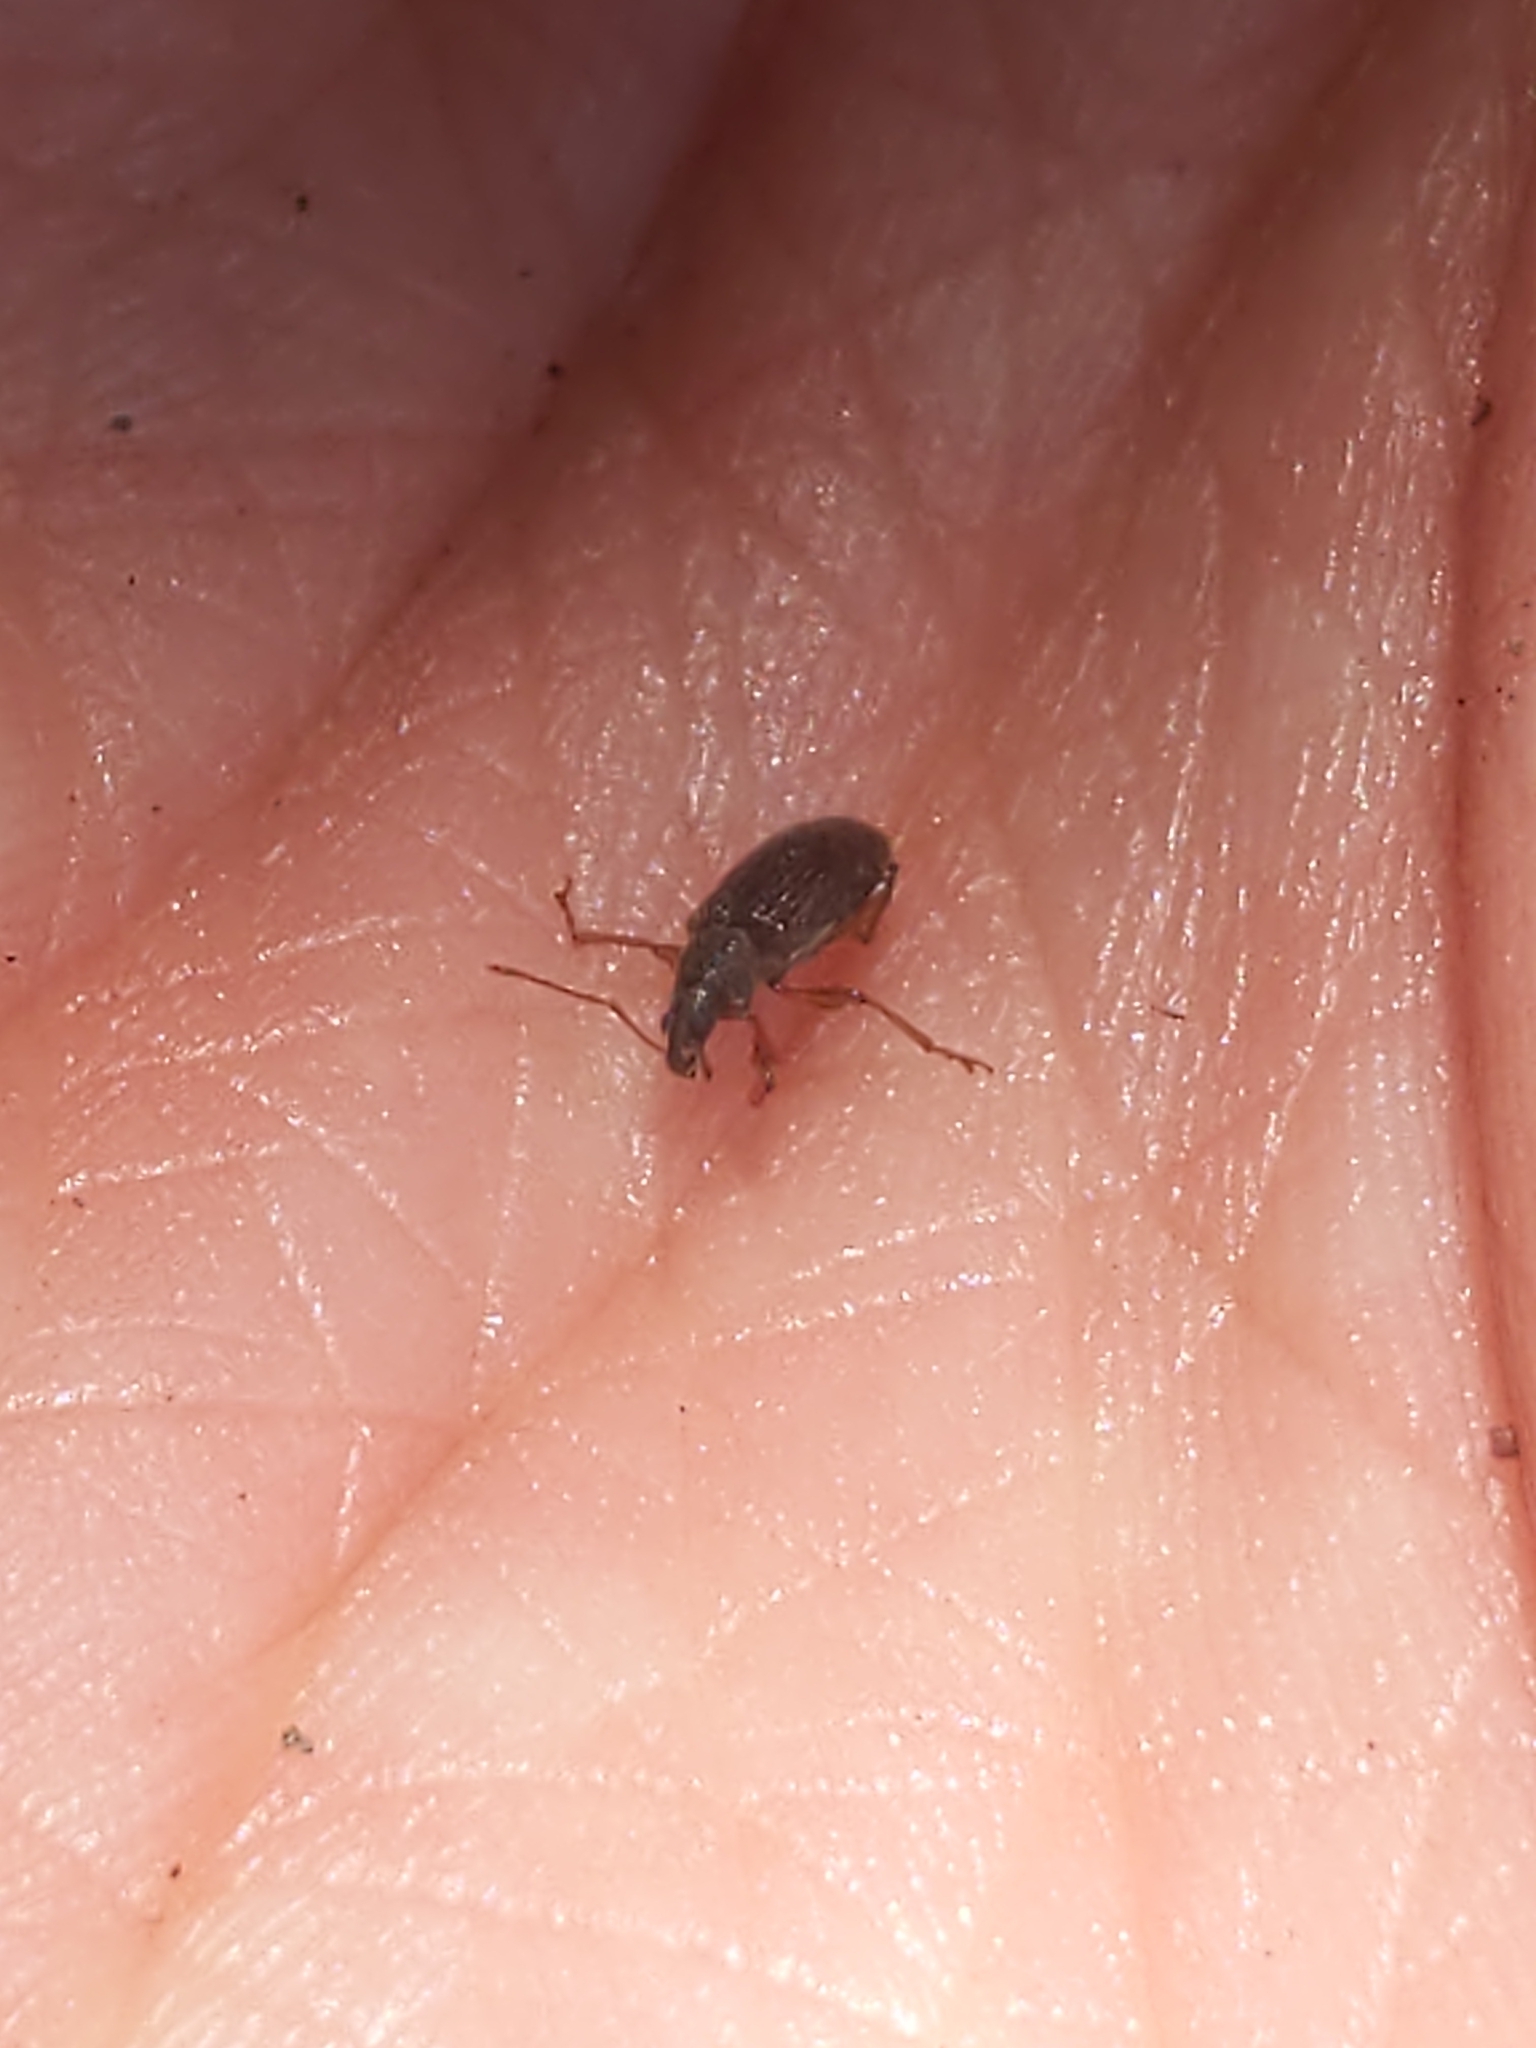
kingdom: Animalia
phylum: Arthropoda
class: Insecta
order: Coleoptera
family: Curculionidae
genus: Phyllobius
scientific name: Phyllobius oblongus
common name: Brown leaf weevil
